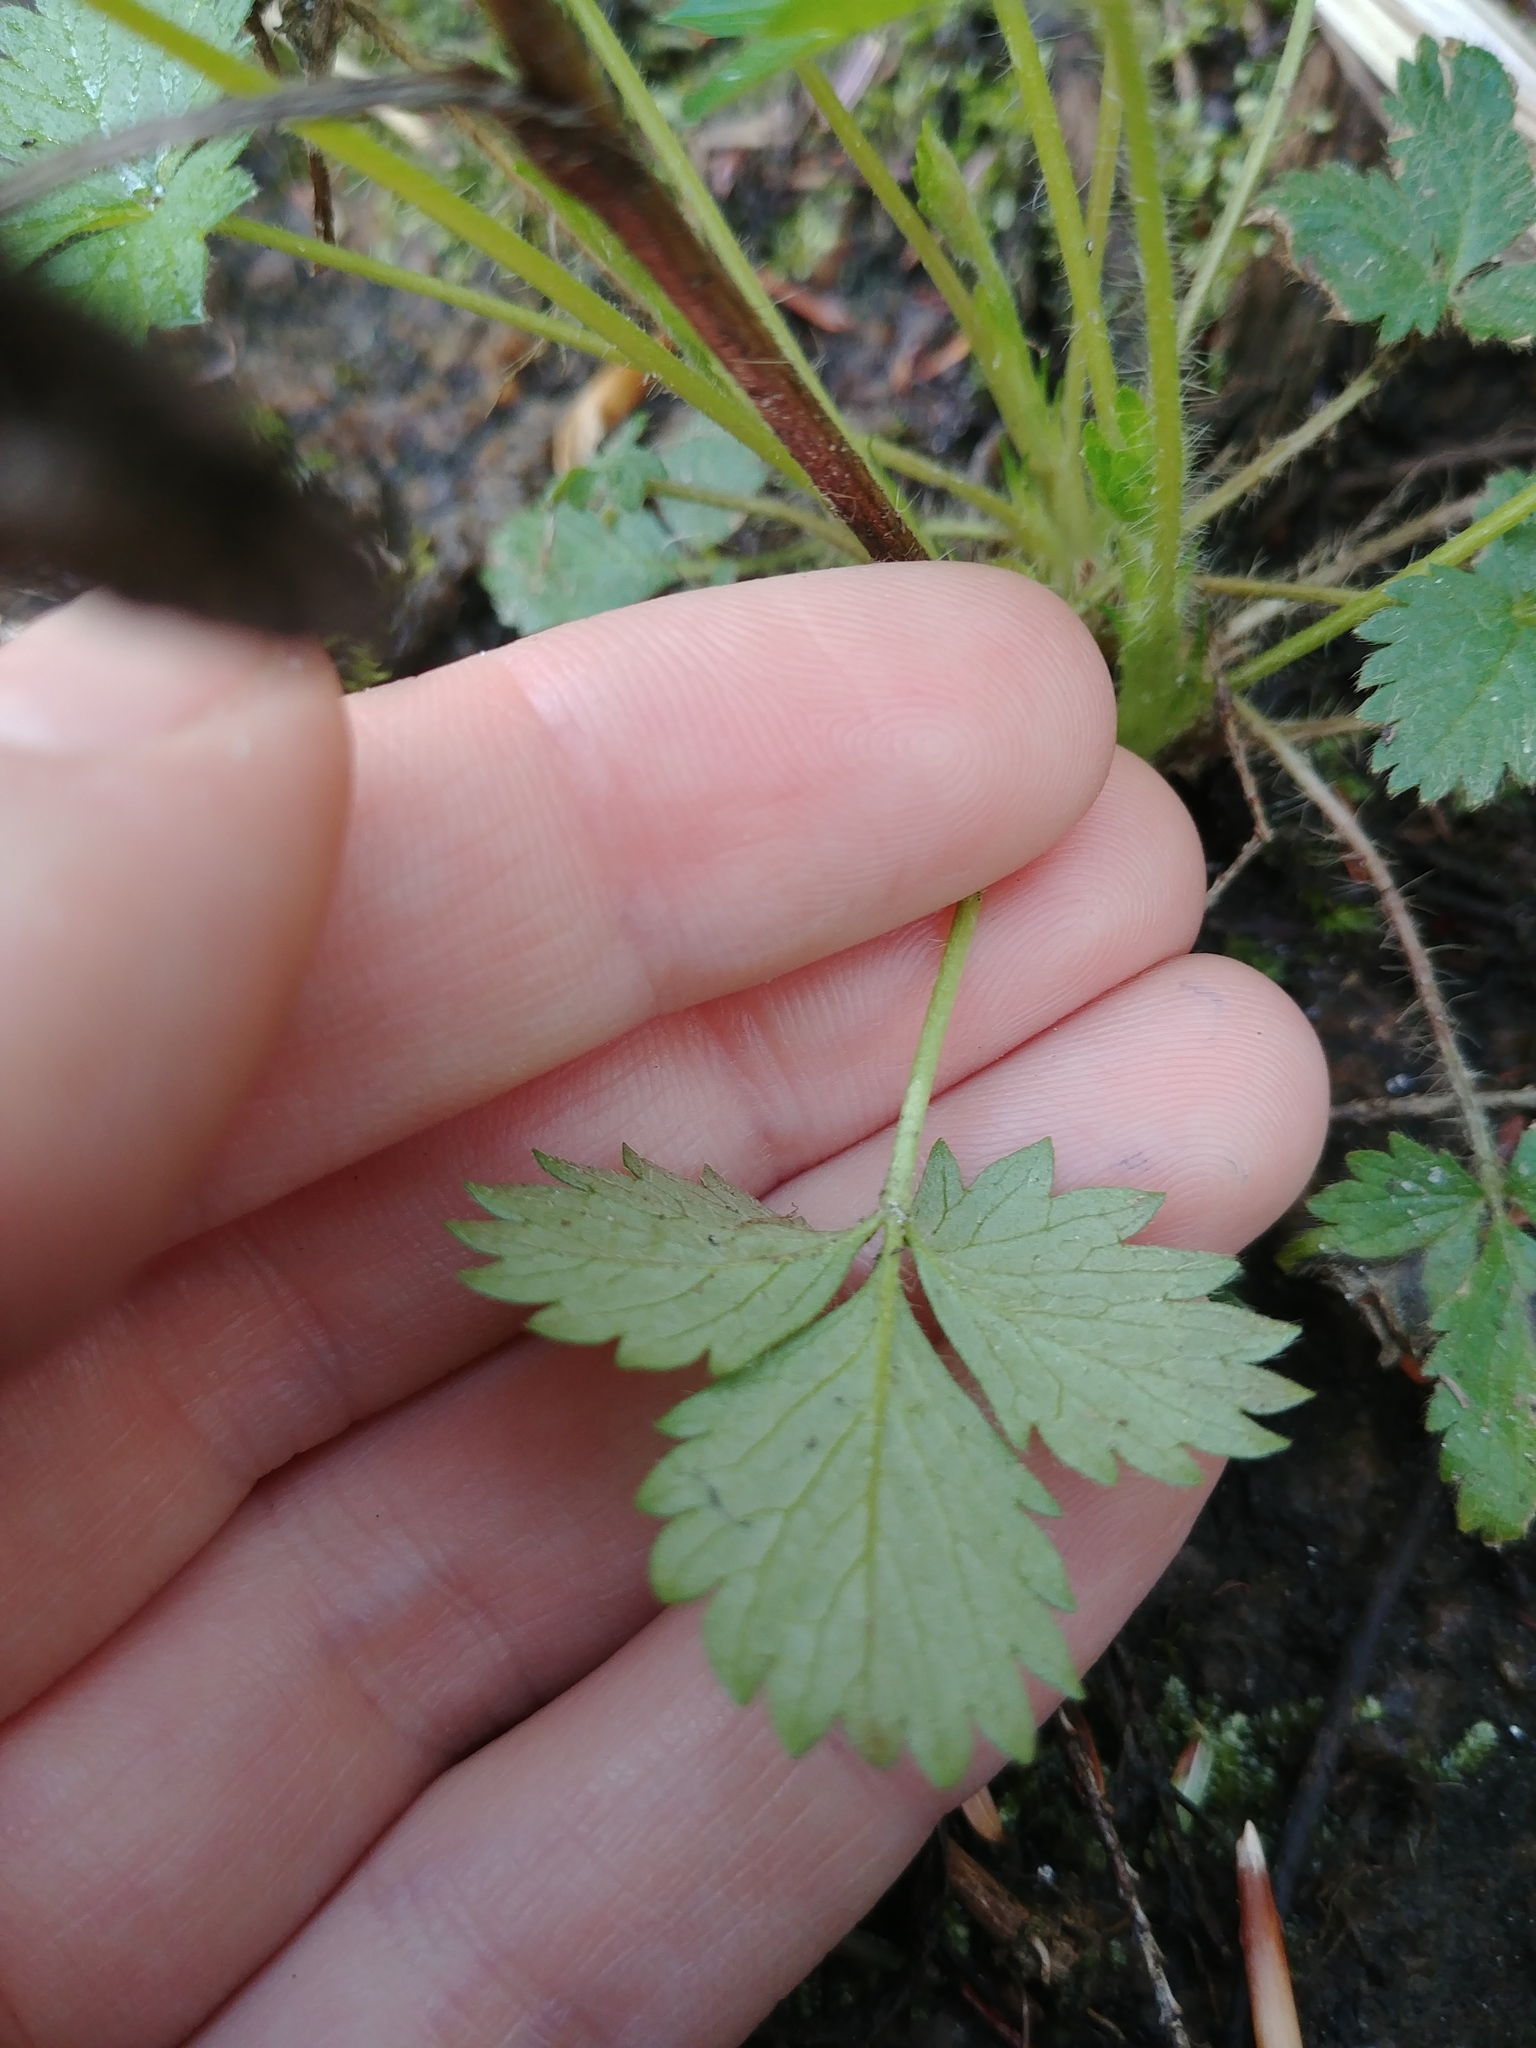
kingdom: Plantae
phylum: Tracheophyta
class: Magnoliopsida
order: Rosales
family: Rosaceae
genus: Potentilla
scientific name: Potentilla norvegica
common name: Ternate-leaved cinquefoil
